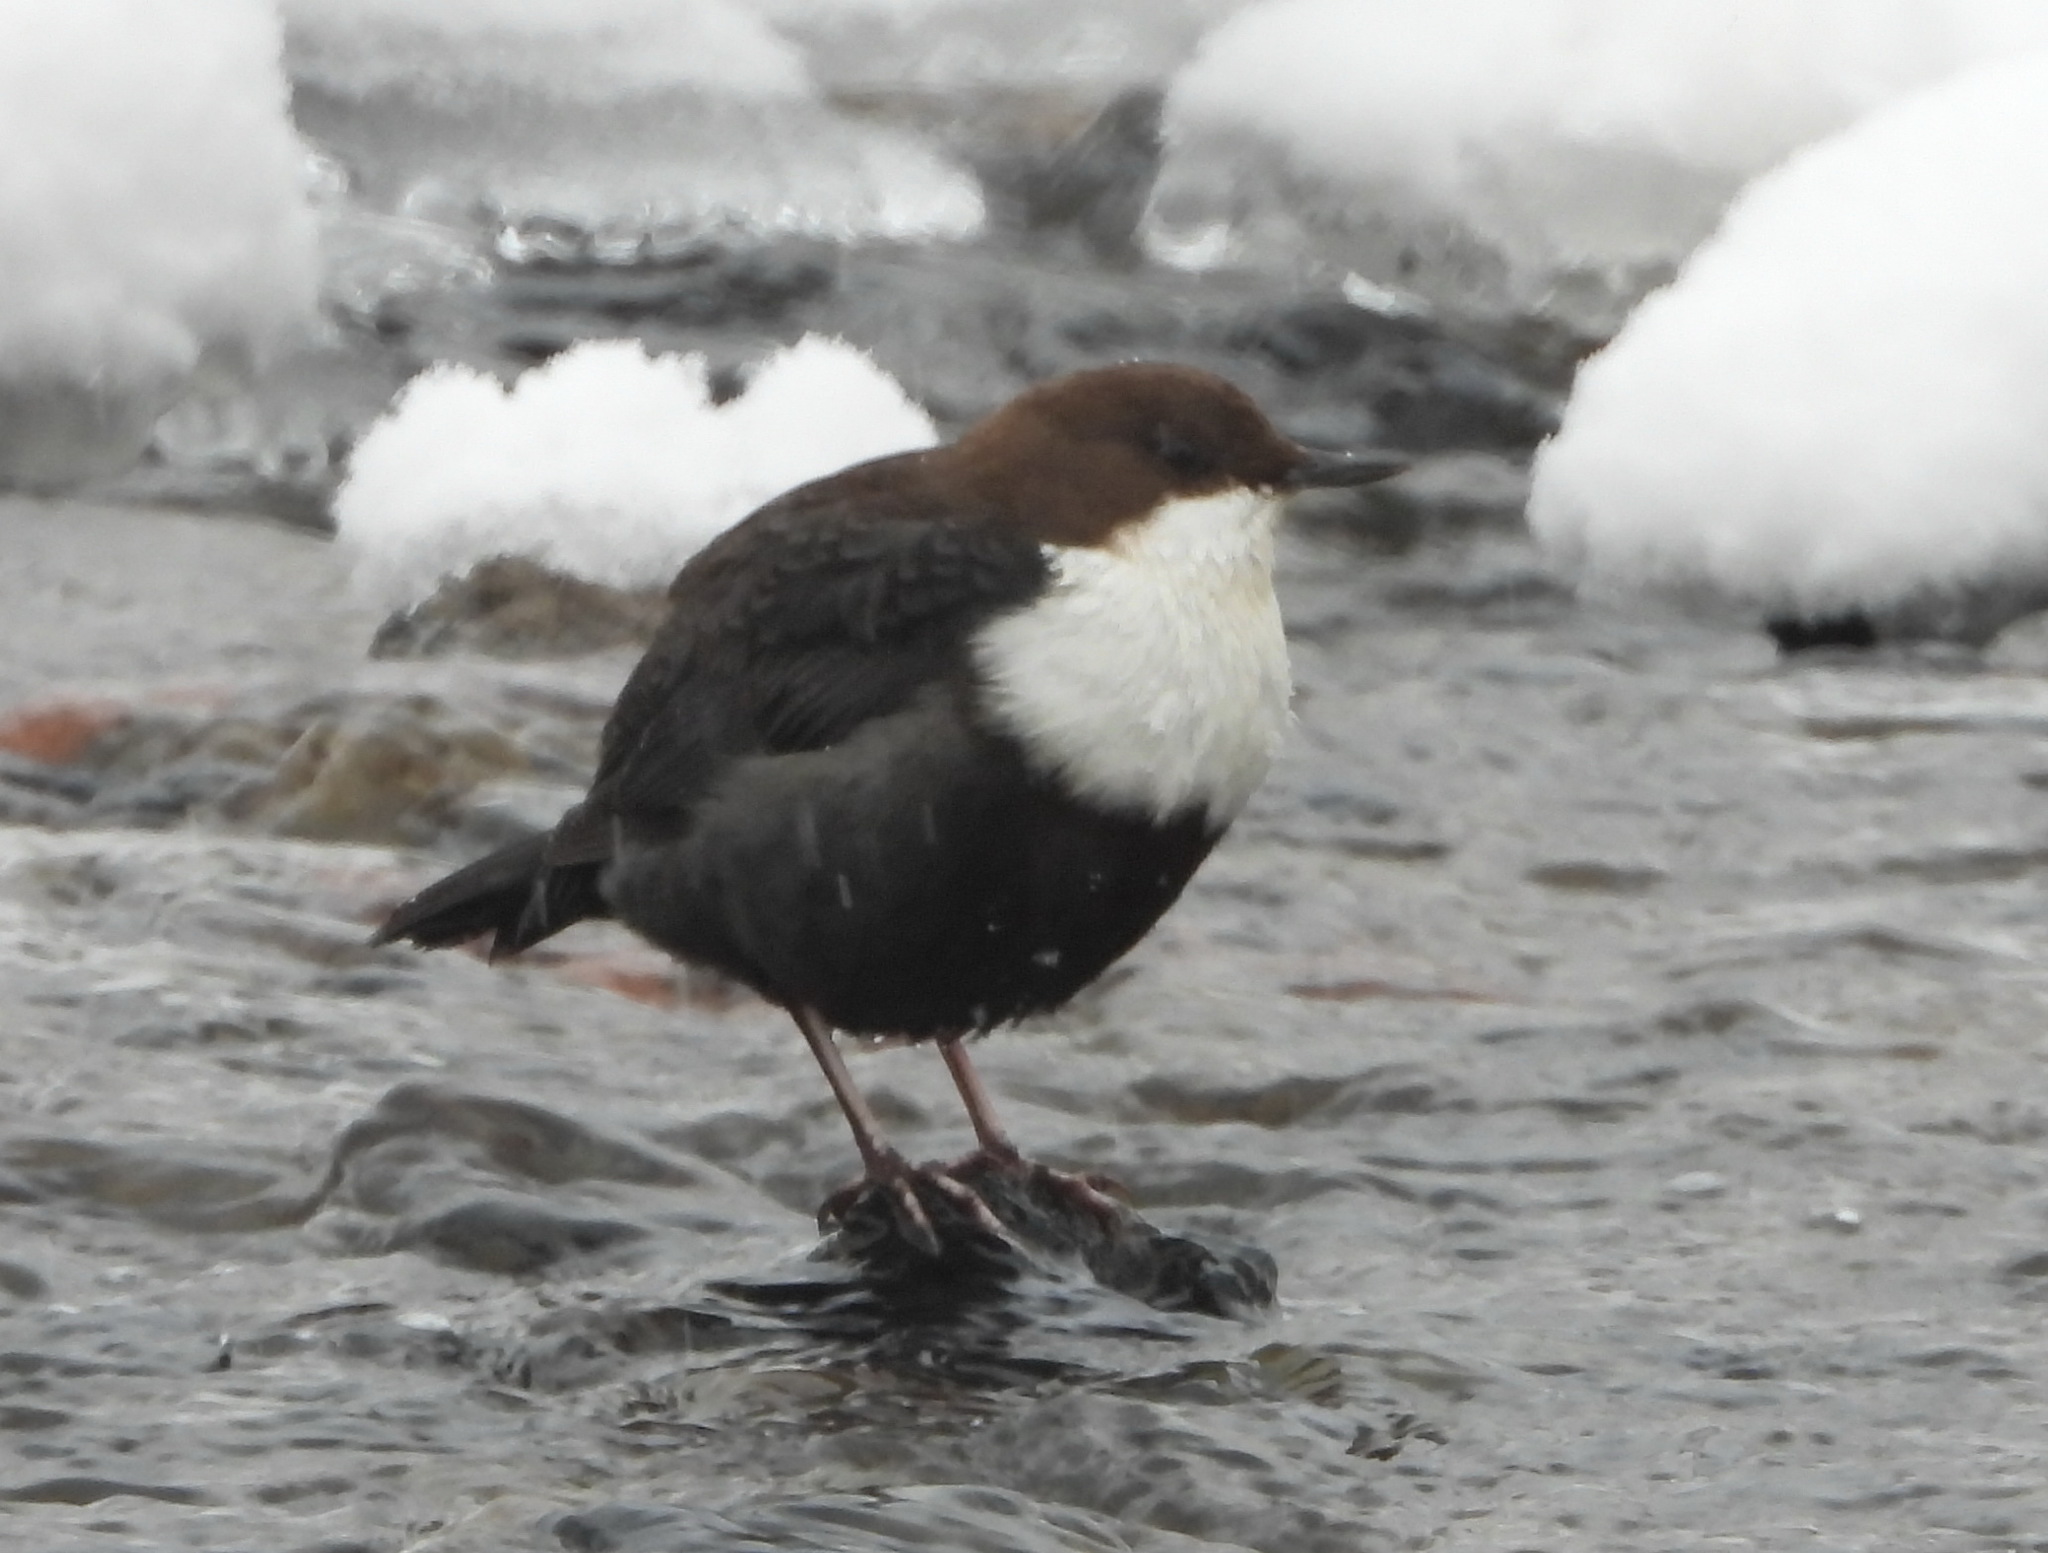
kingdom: Animalia
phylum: Chordata
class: Aves
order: Passeriformes
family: Cinclidae
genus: Cinclus
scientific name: Cinclus cinclus
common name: White-throated dipper
